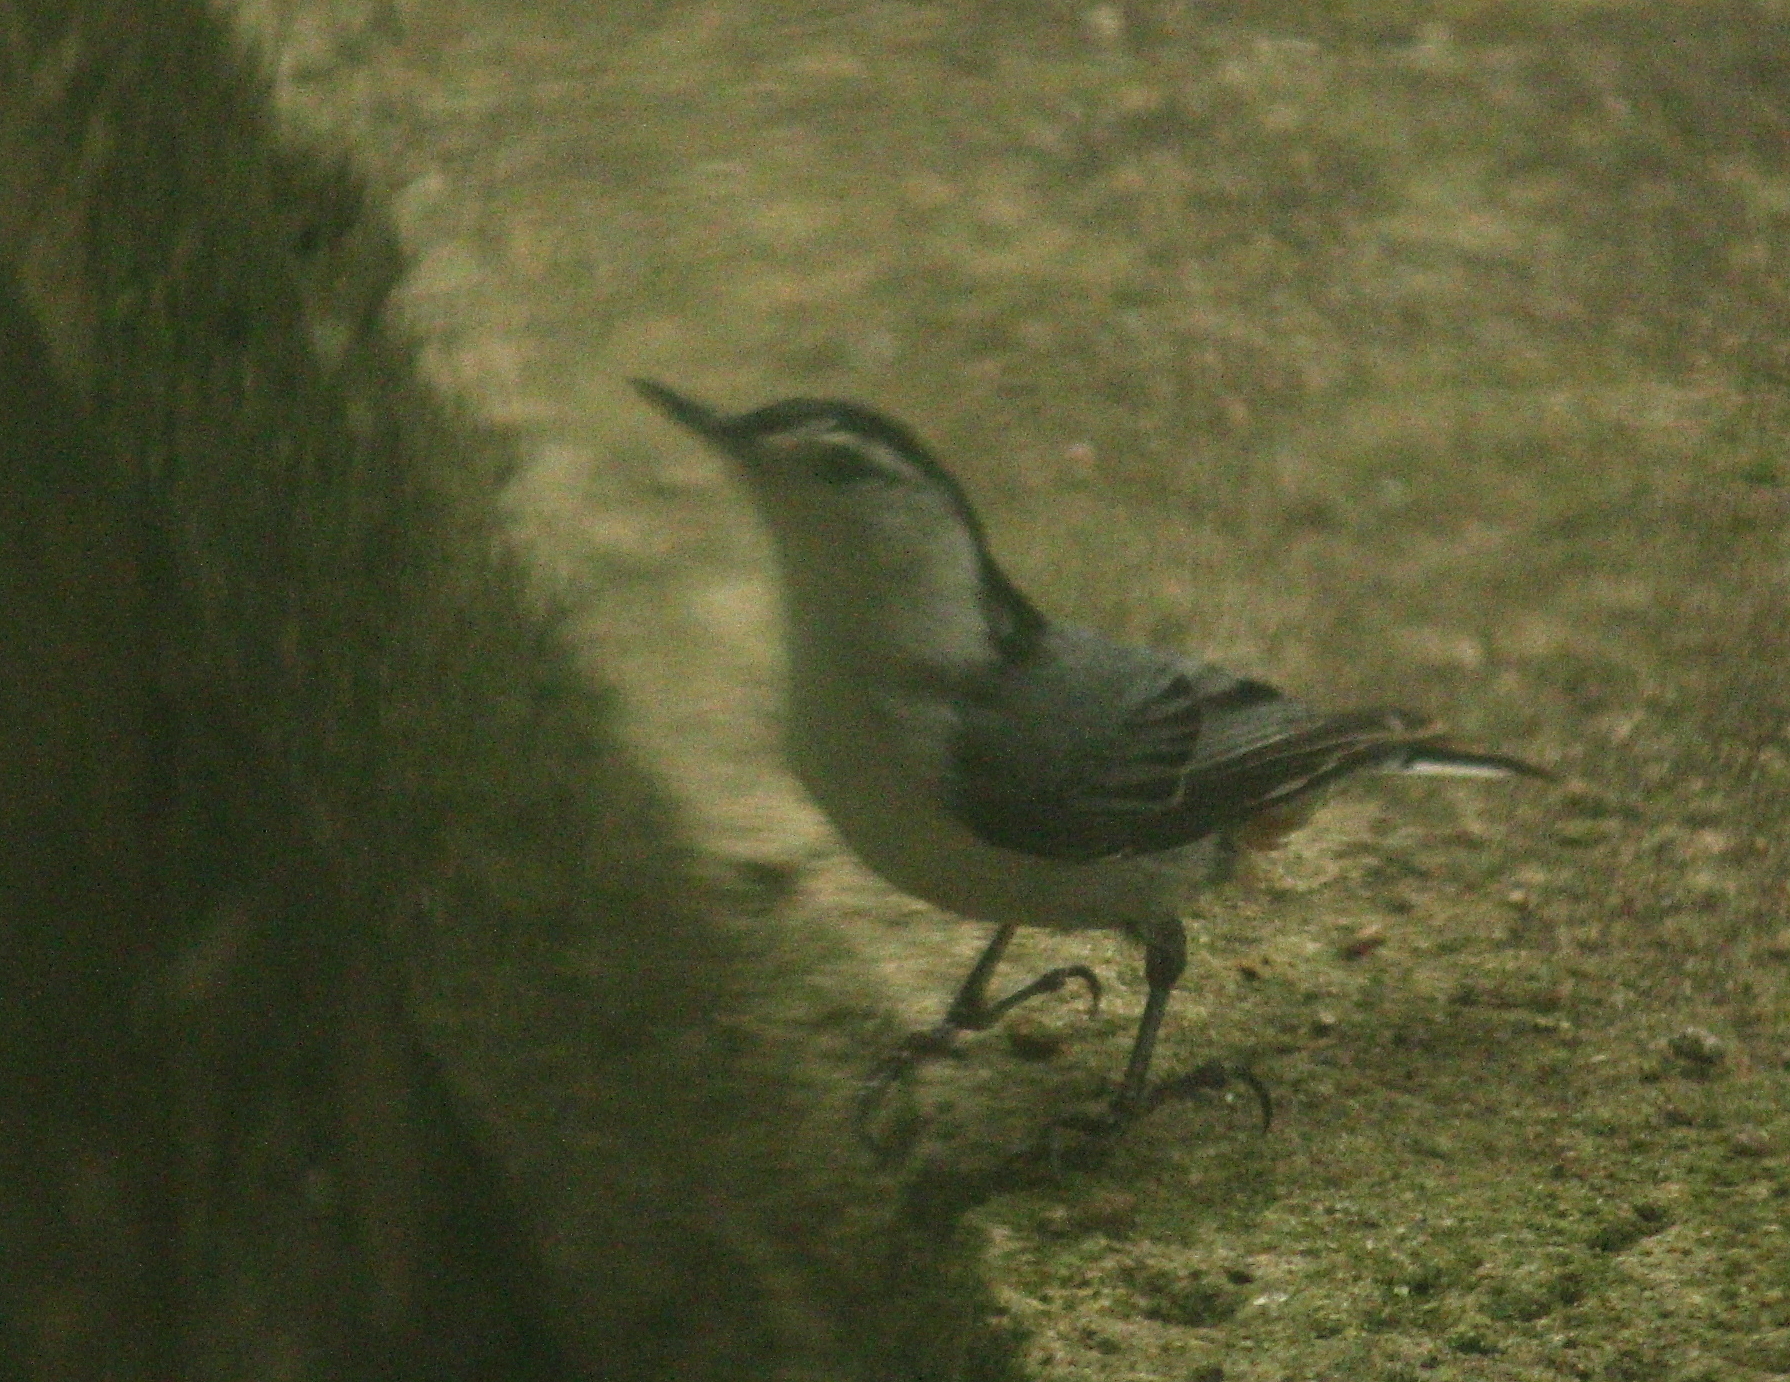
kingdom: Animalia
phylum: Chordata
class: Aves
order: Passeriformes
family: Sittidae
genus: Sitta
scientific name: Sitta carolinensis
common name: White-breasted nuthatch
